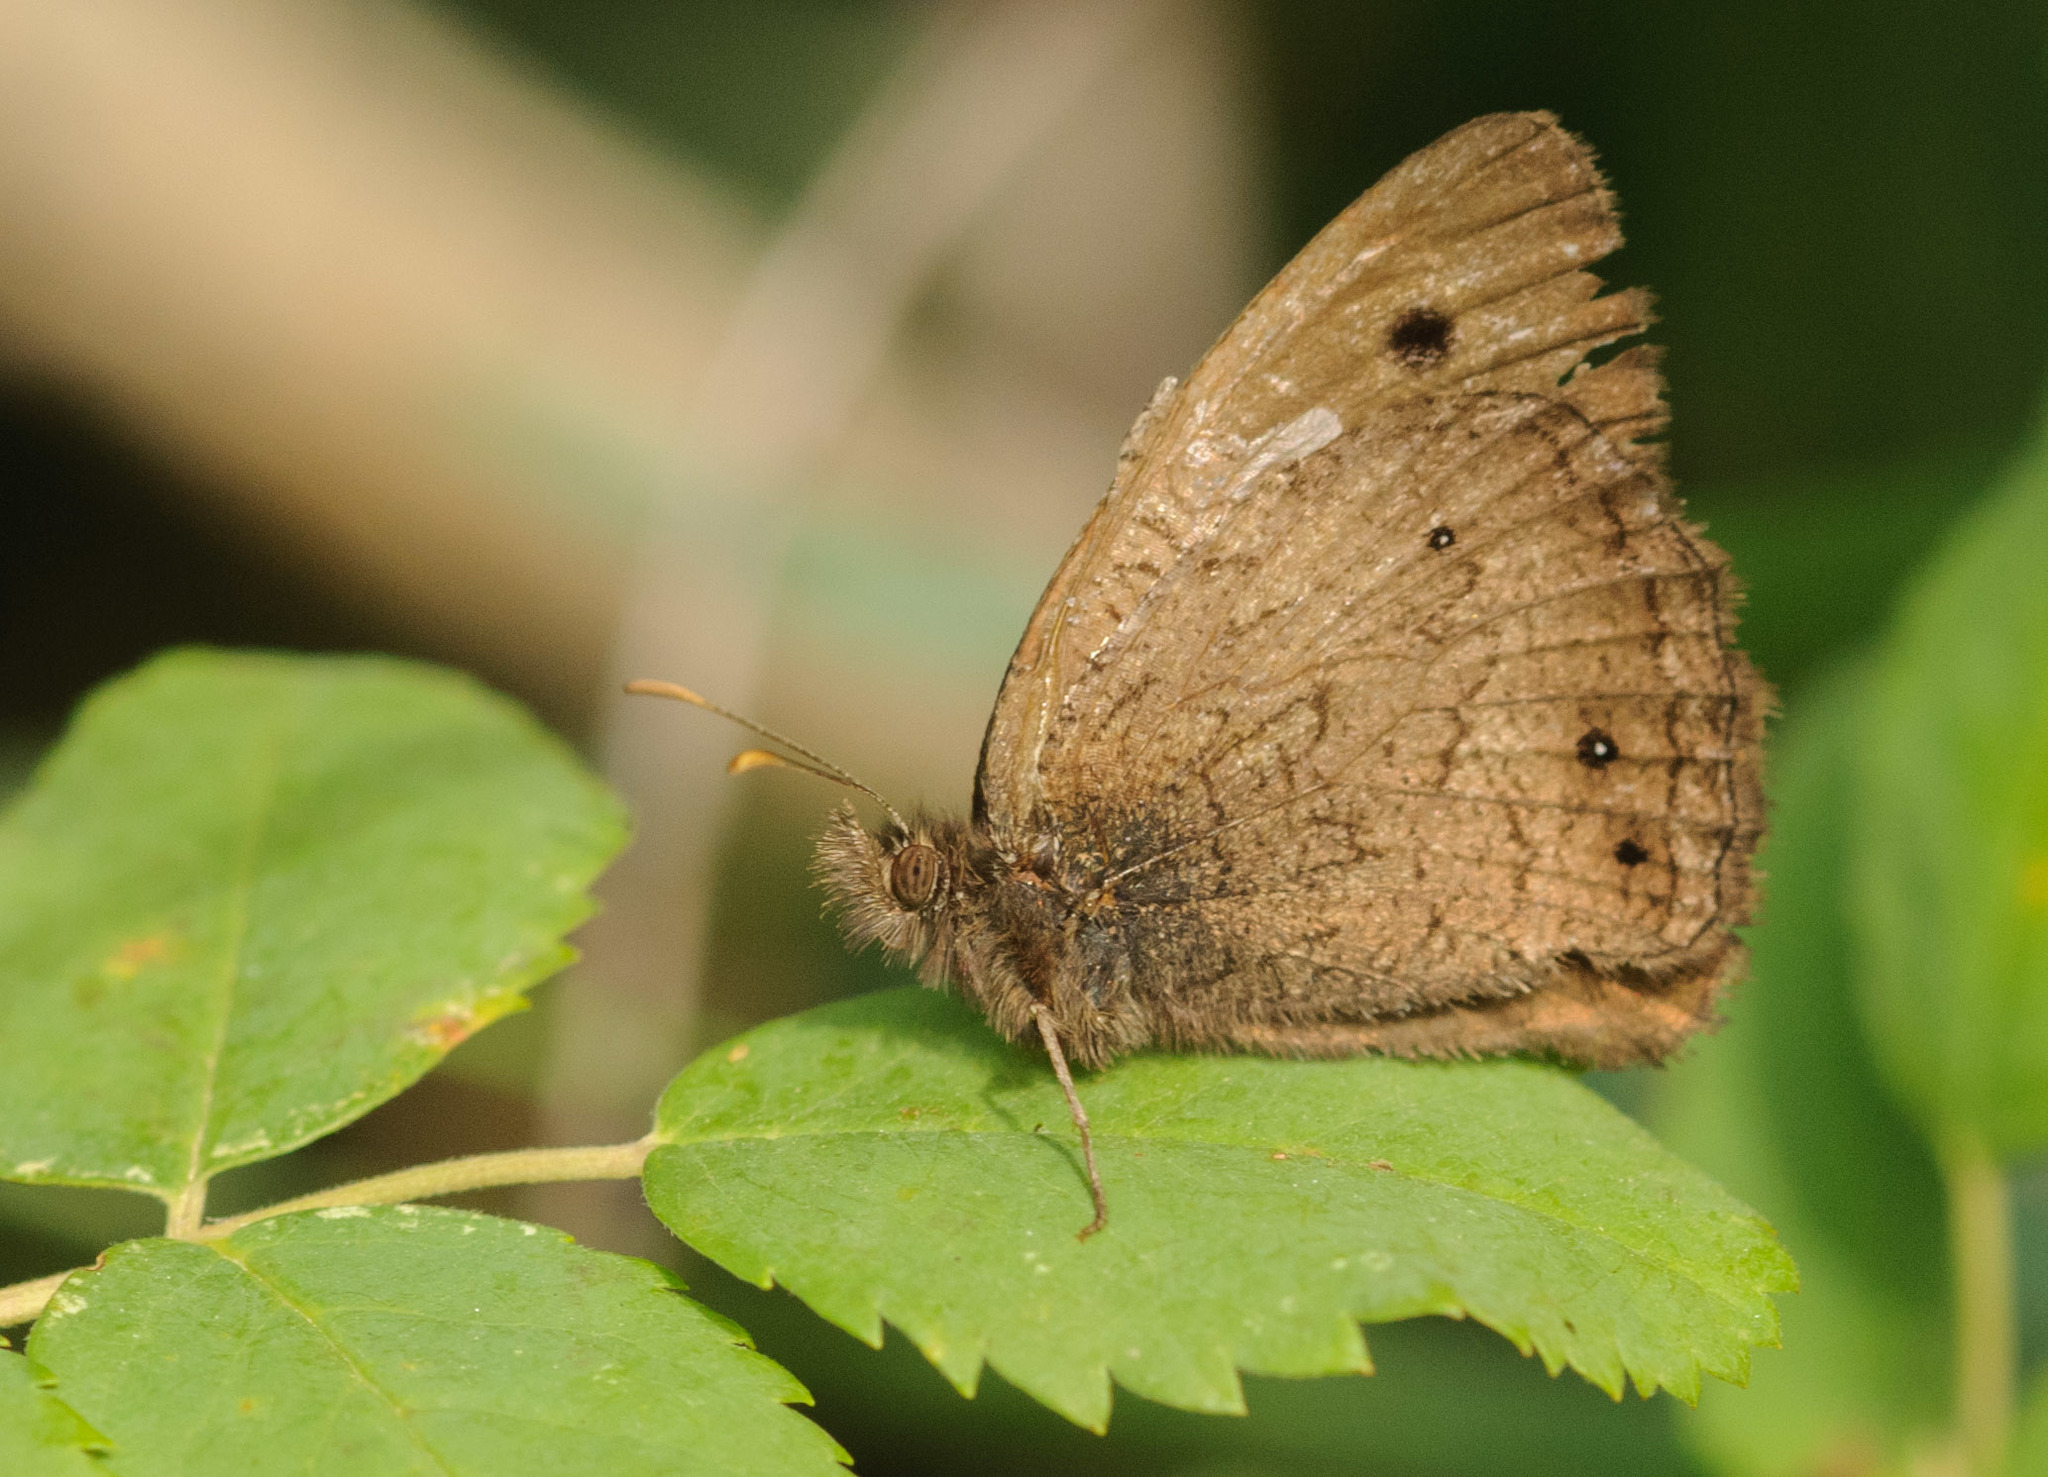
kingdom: Animalia
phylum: Arthropoda
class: Insecta
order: Lepidoptera
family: Nymphalidae
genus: Cercyonis
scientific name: Cercyonis oetus
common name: Small wood-nymph
